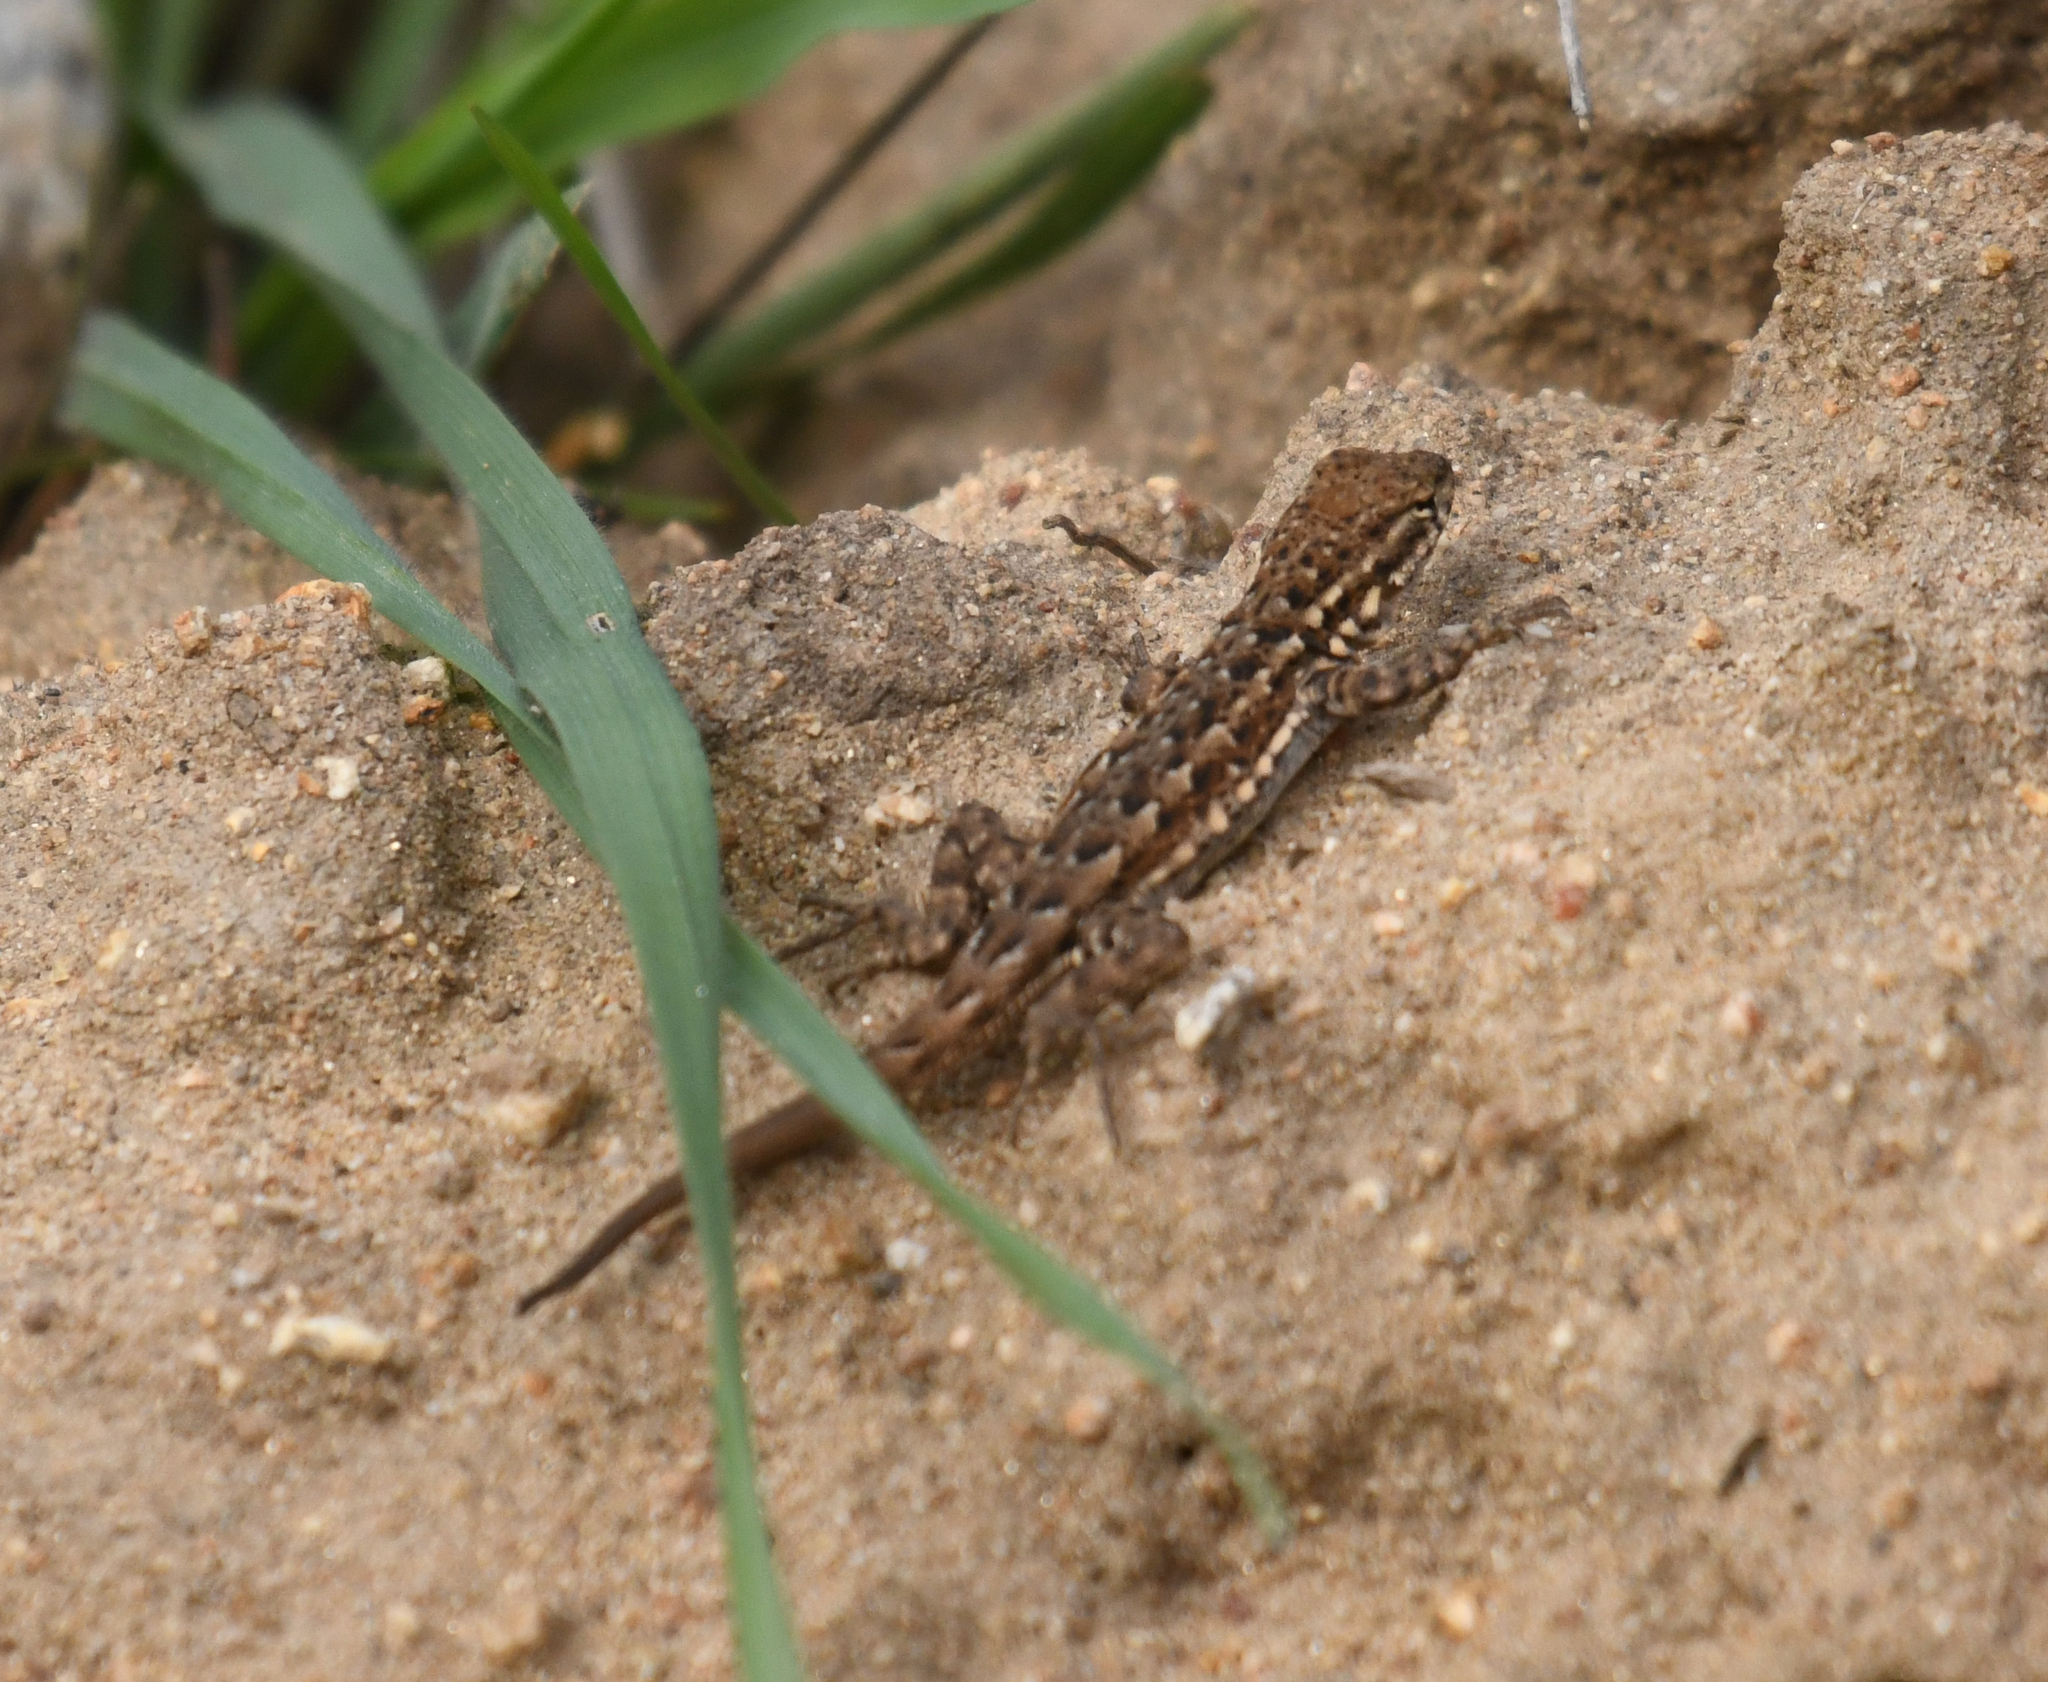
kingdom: Animalia
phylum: Chordata
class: Squamata
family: Phrynosomatidae
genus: Uta
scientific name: Uta stansburiana
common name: Side-blotched lizard
